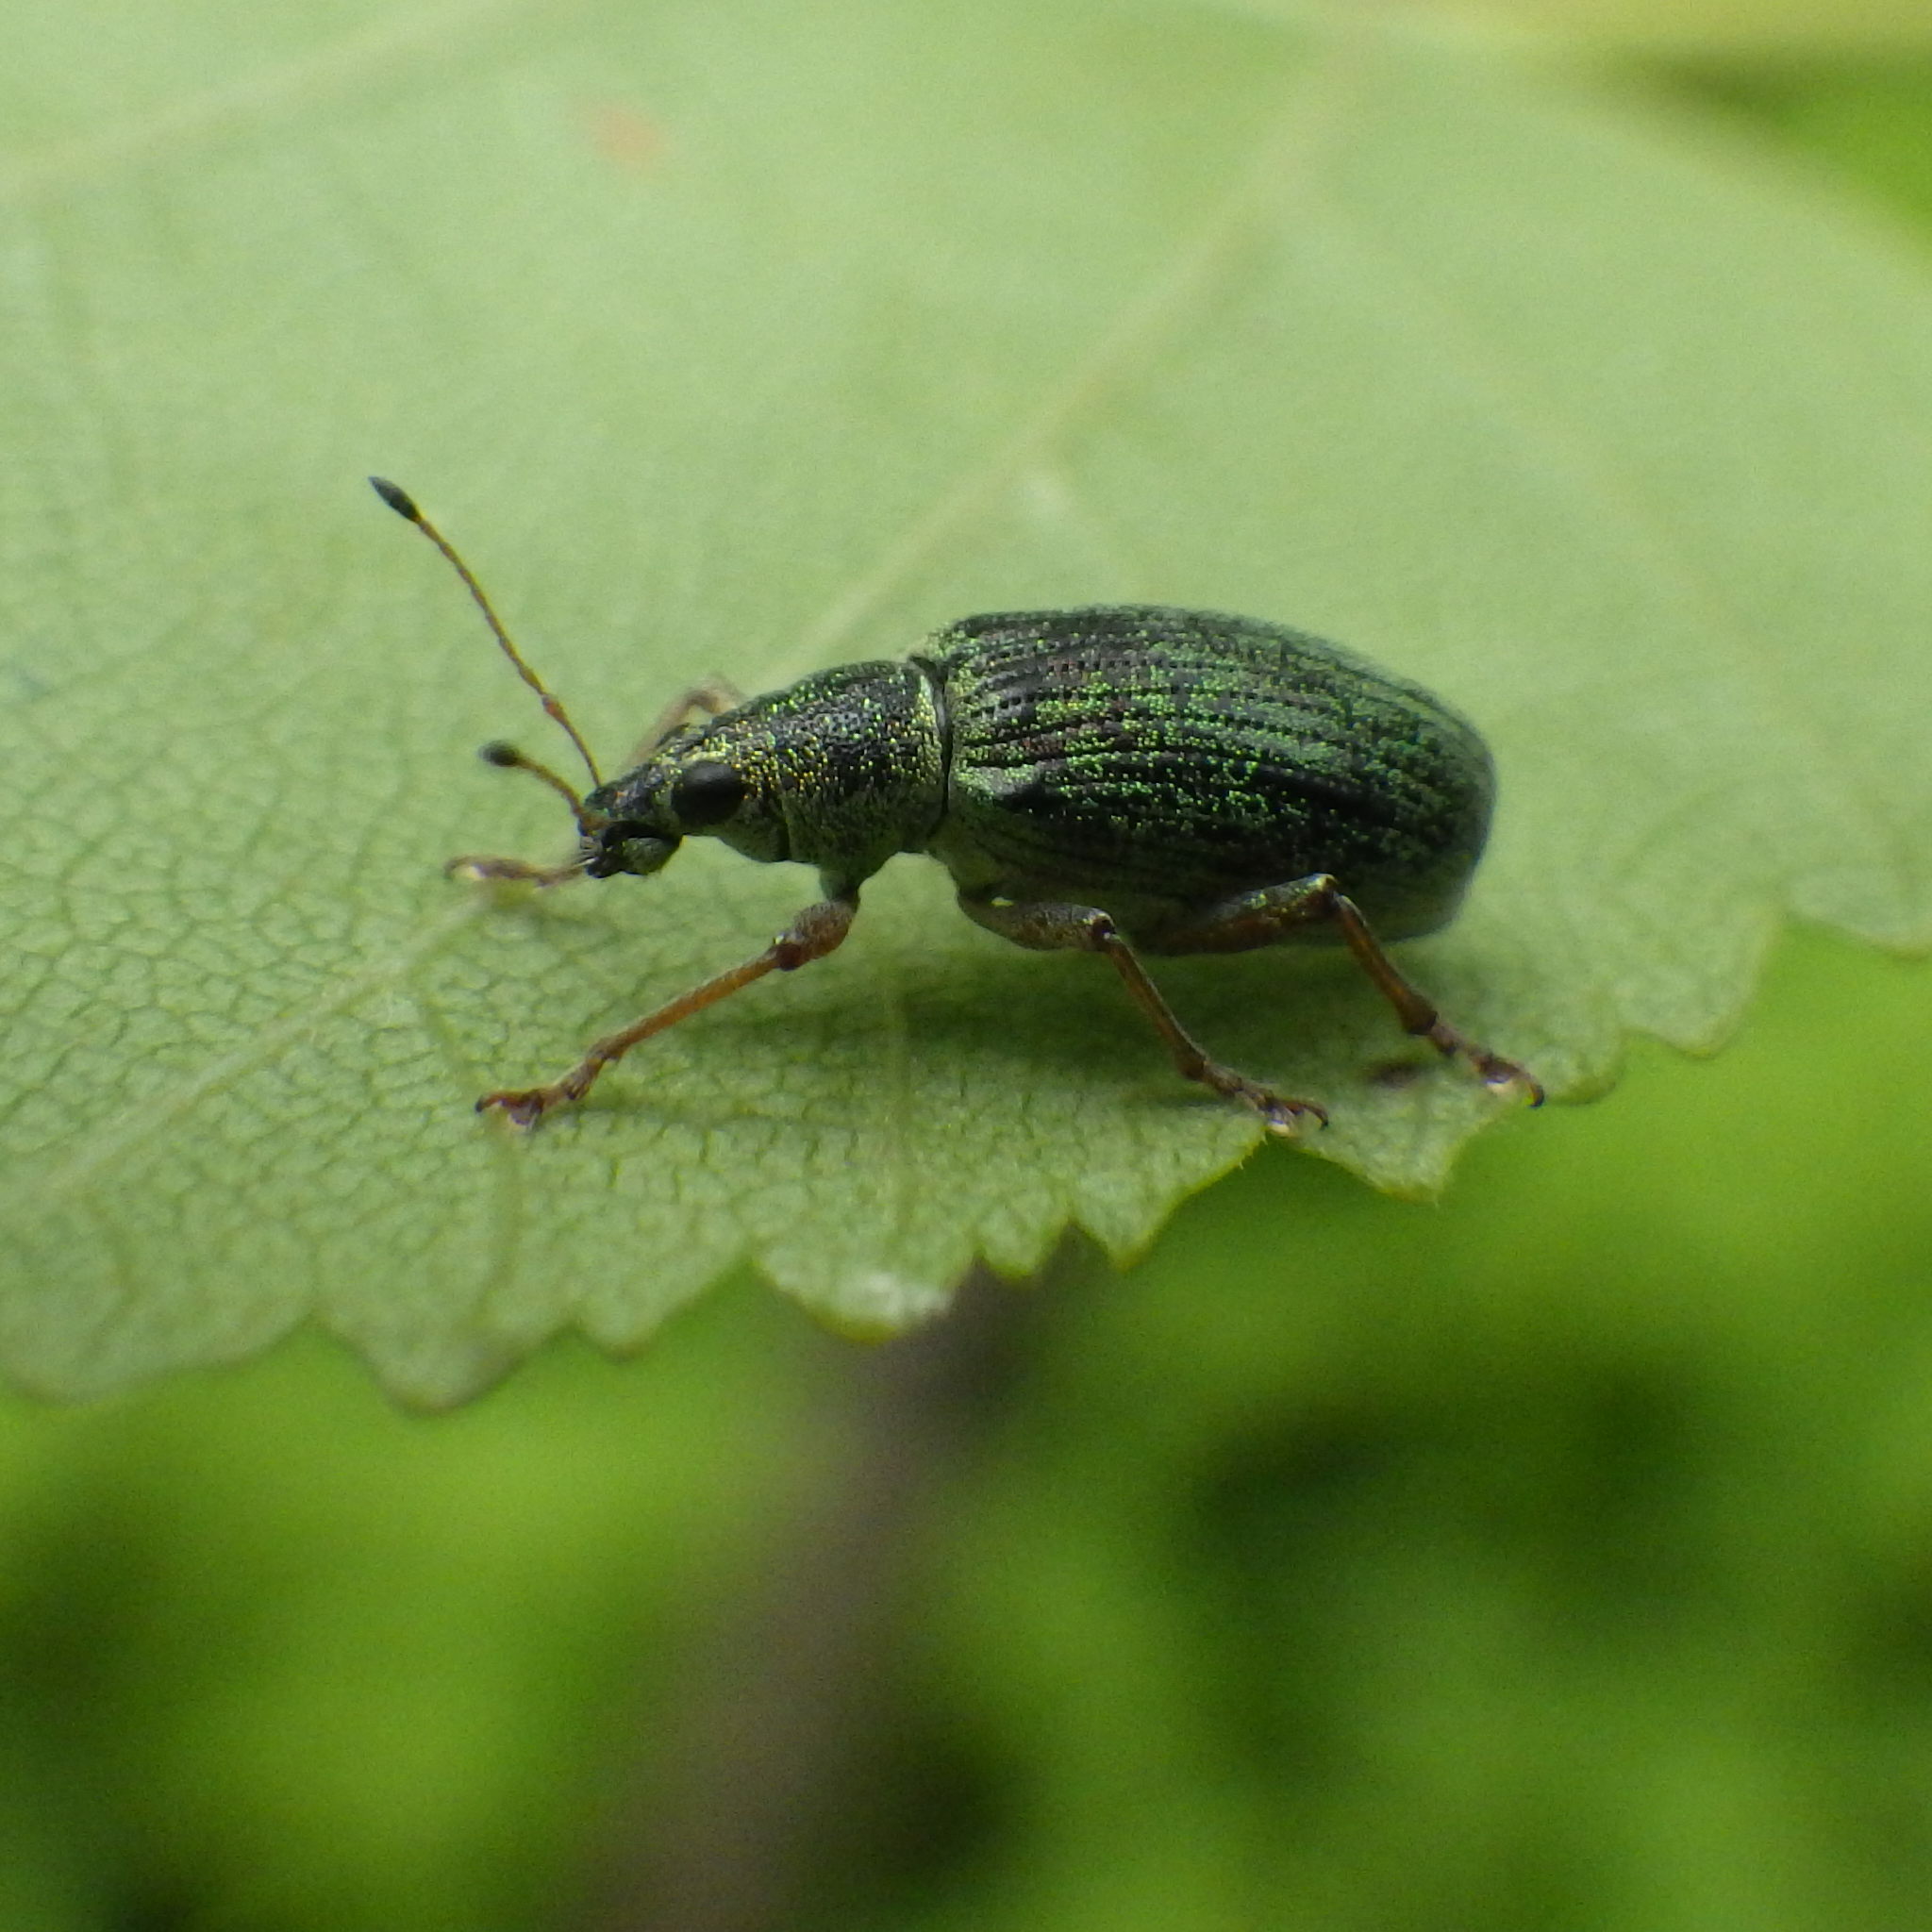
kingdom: Animalia
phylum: Arthropoda
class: Insecta
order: Coleoptera
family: Curculionidae
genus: Polydrusus
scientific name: Polydrusus formosus
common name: Weevil
